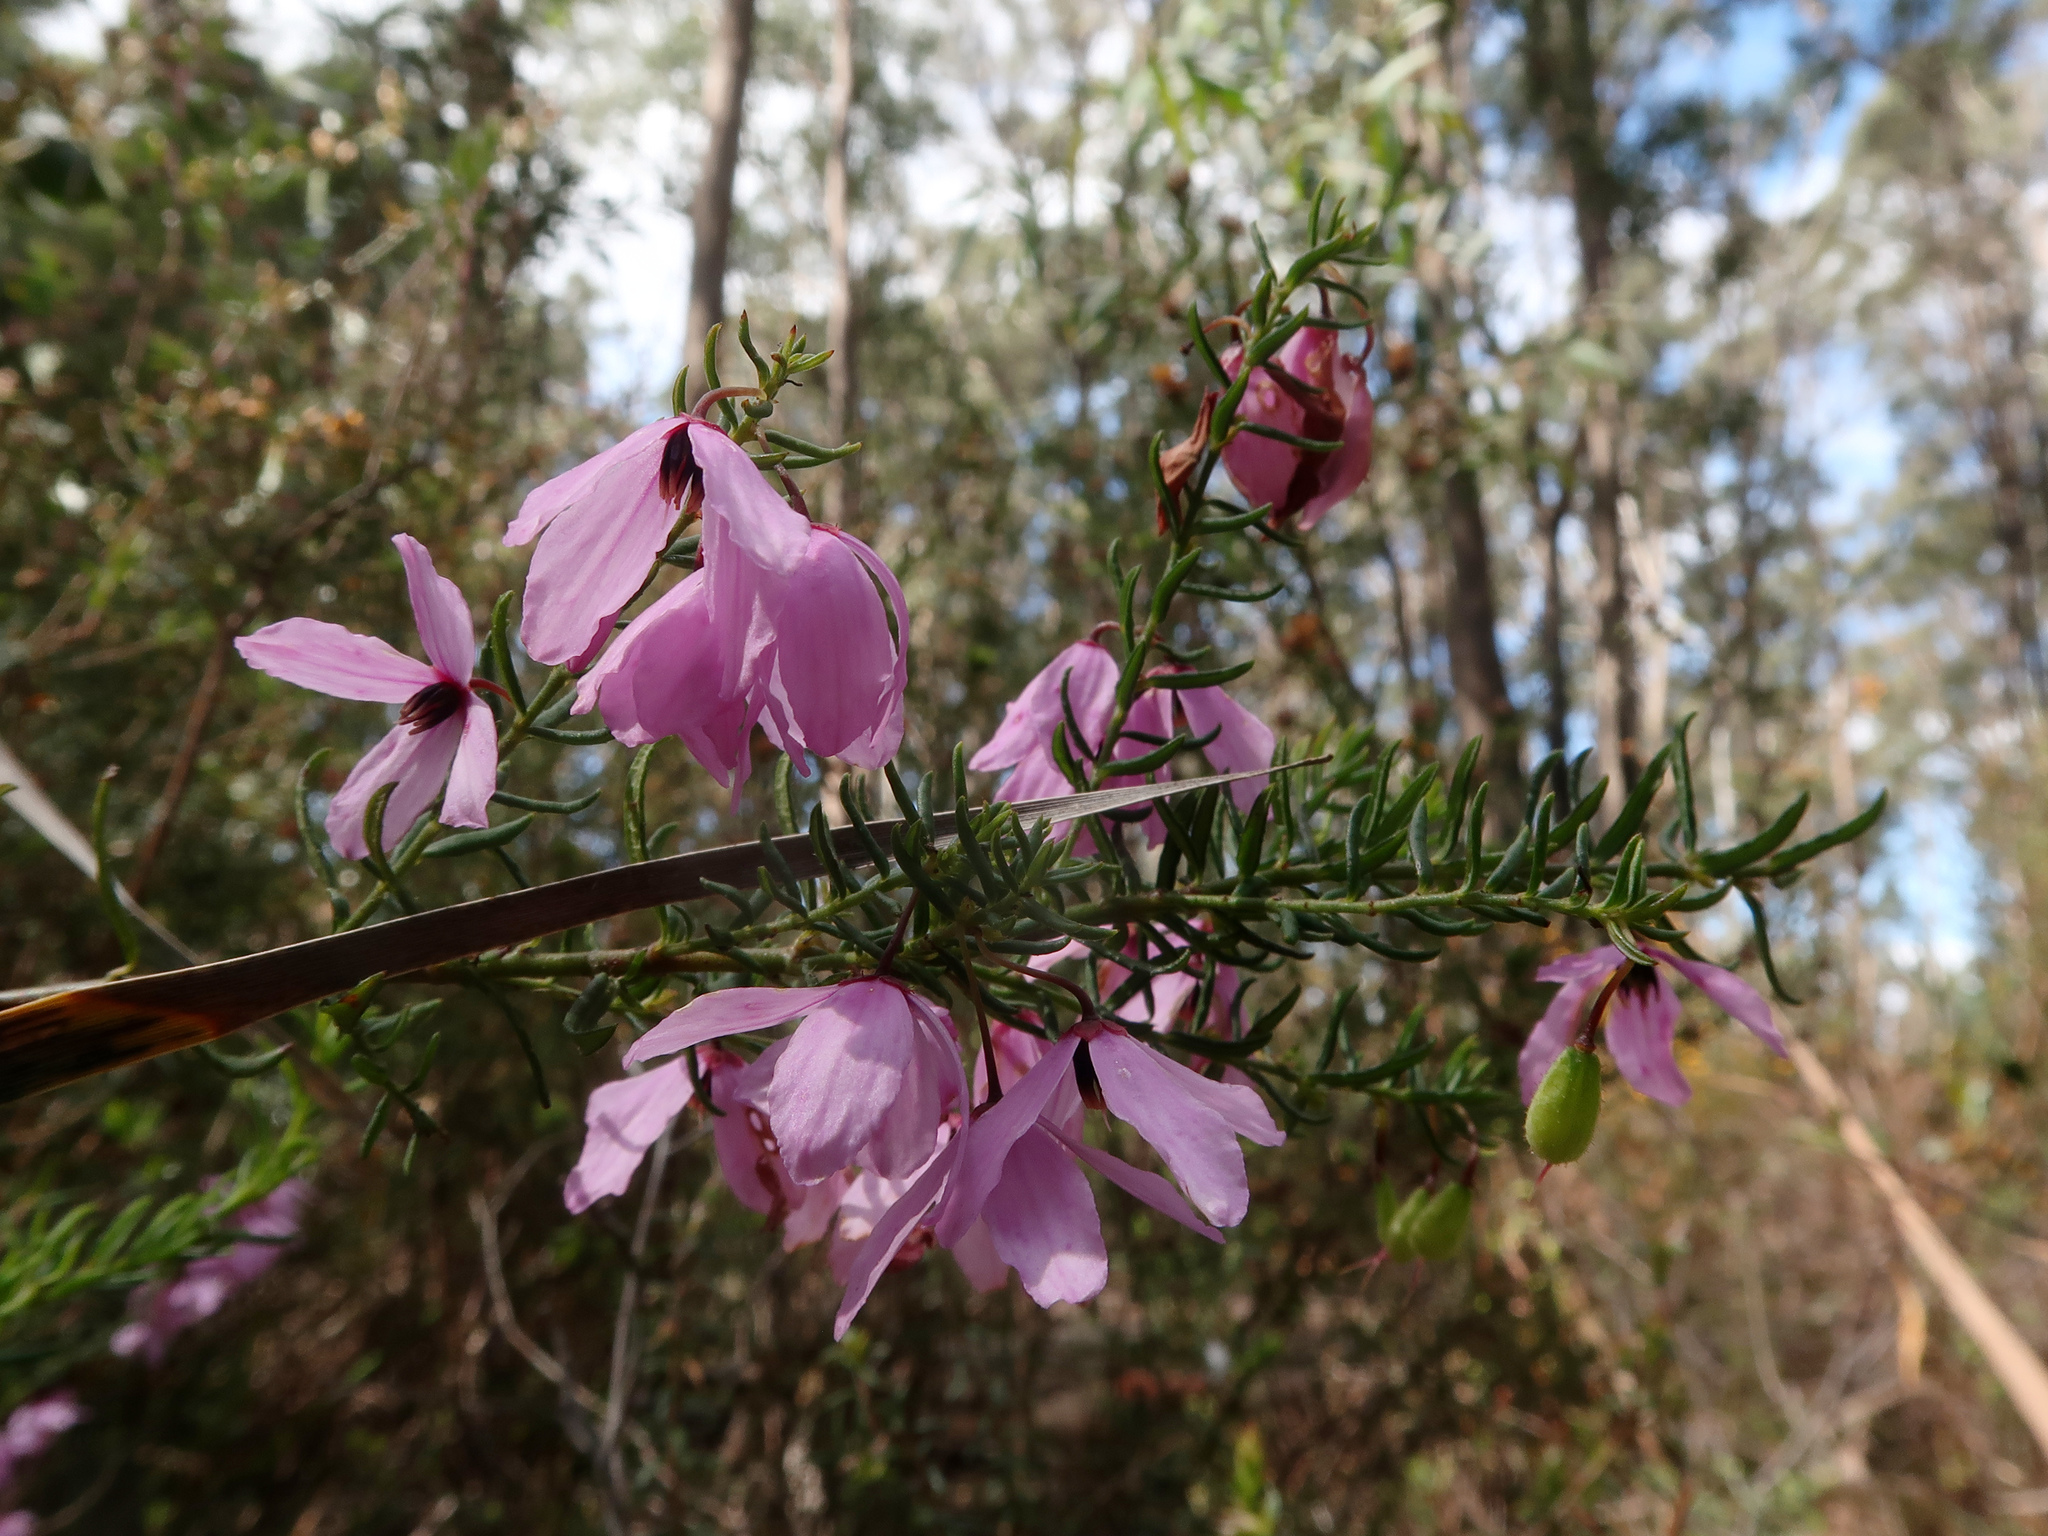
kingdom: Plantae
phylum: Tracheophyta
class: Magnoliopsida
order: Oxalidales
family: Elaeocarpaceae
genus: Tetratheca
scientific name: Tetratheca pilosa
